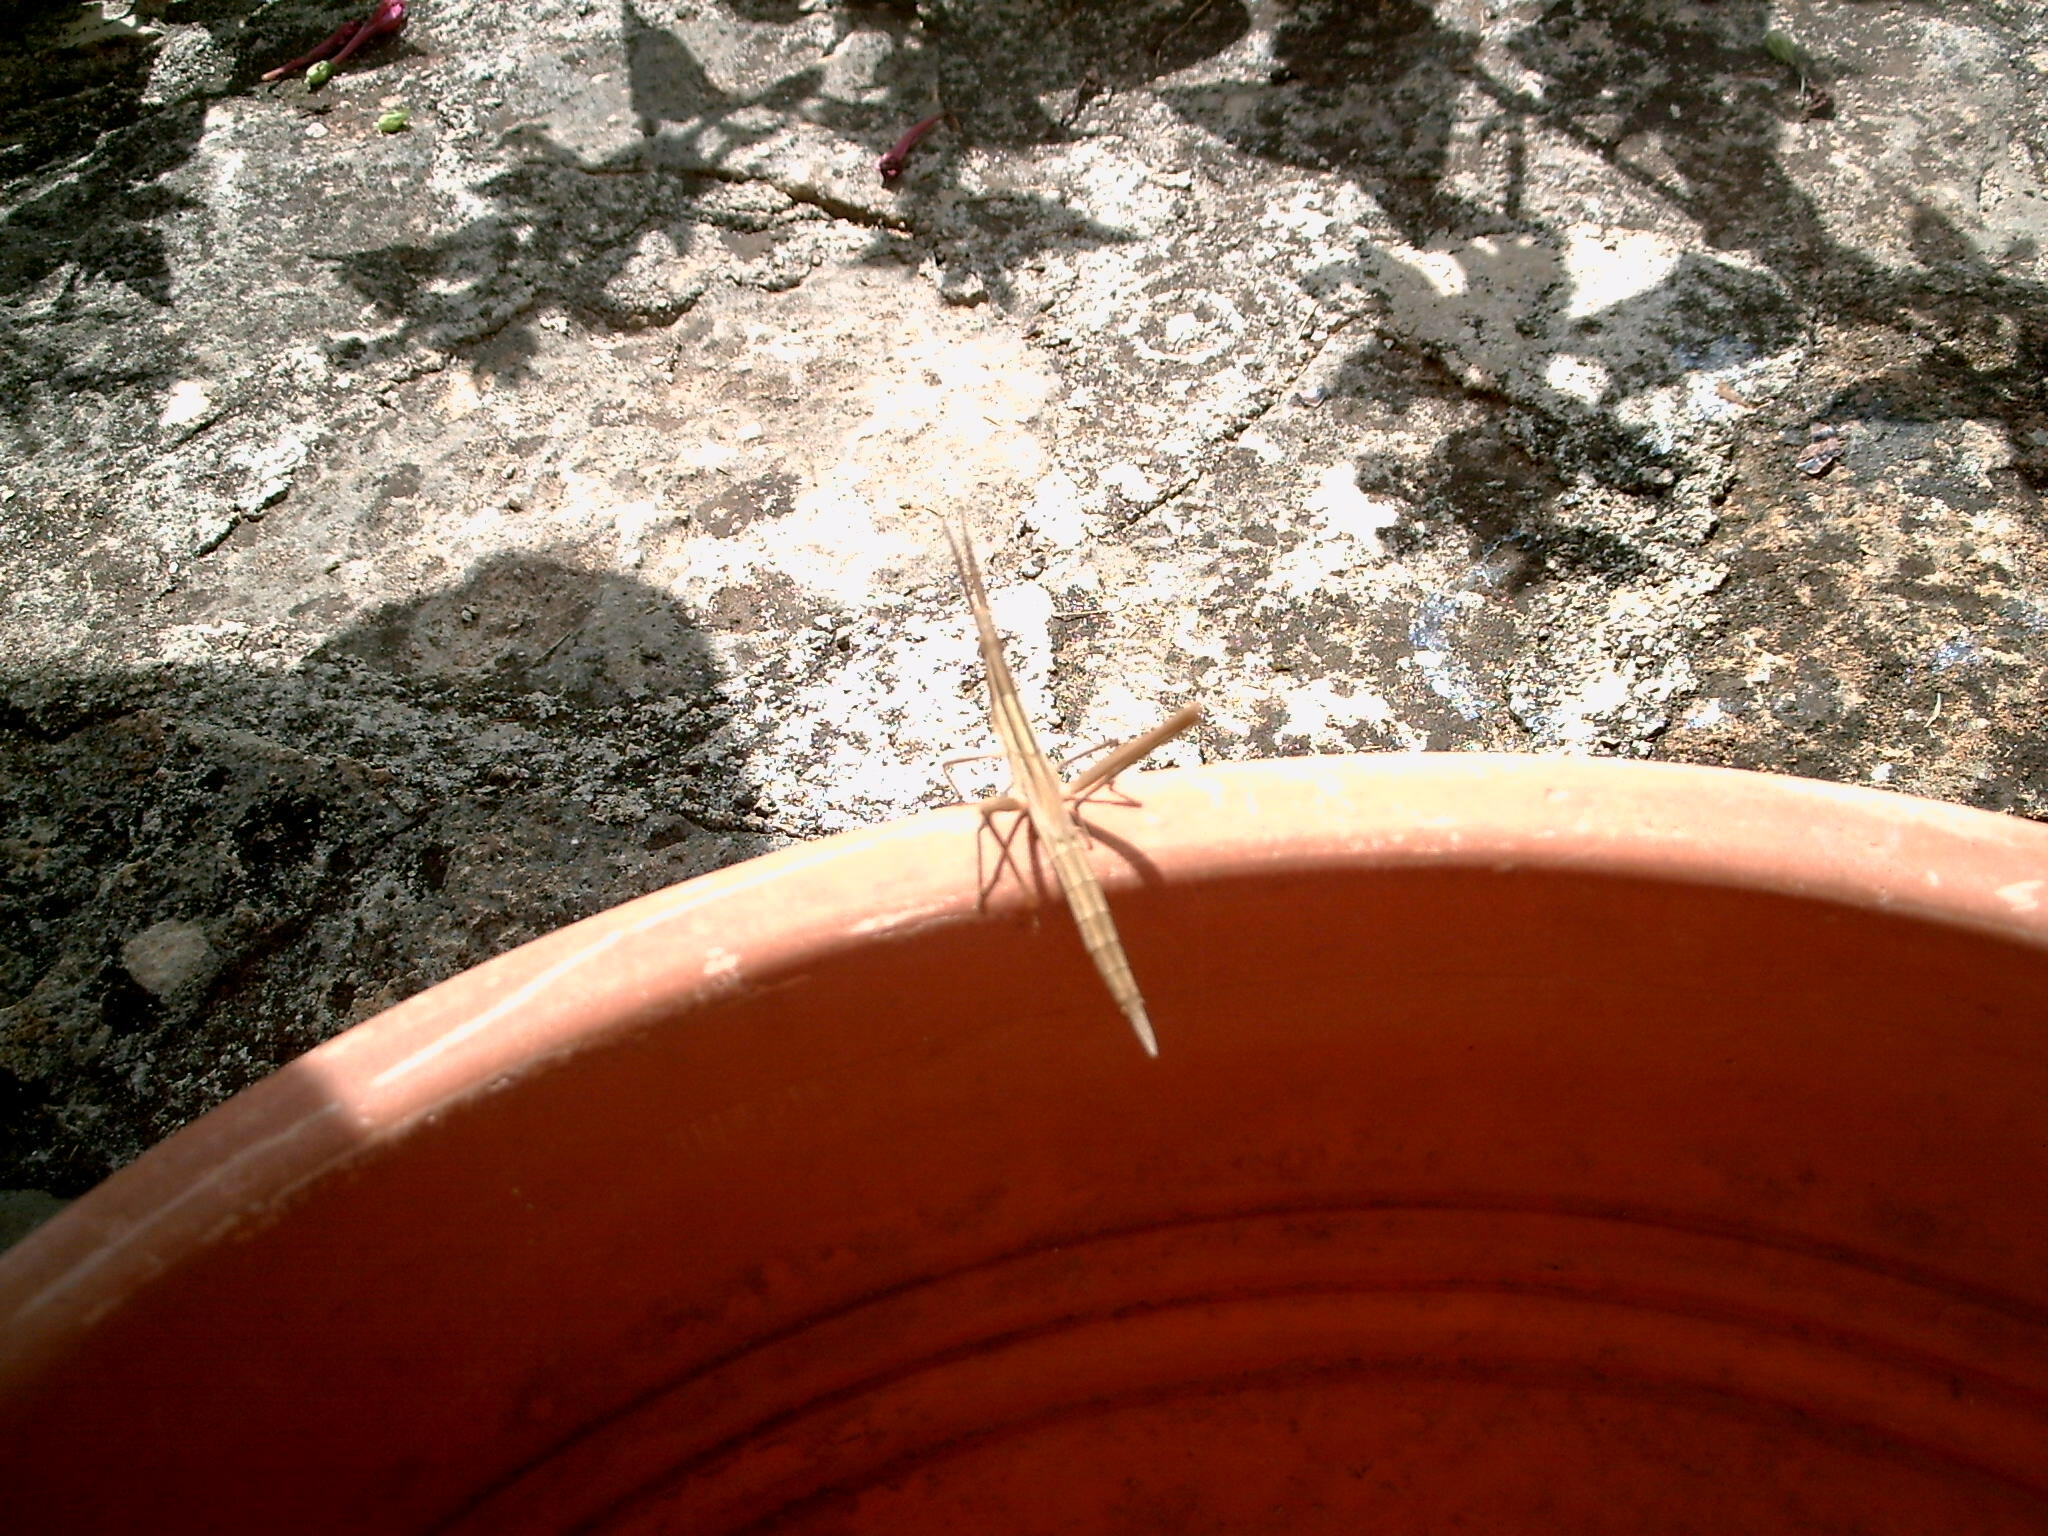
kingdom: Animalia
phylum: Arthropoda
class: Insecta
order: Orthoptera
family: Acrididae
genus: Acrida
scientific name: Acrida ungarica
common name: Common cone-headed grasshopper
